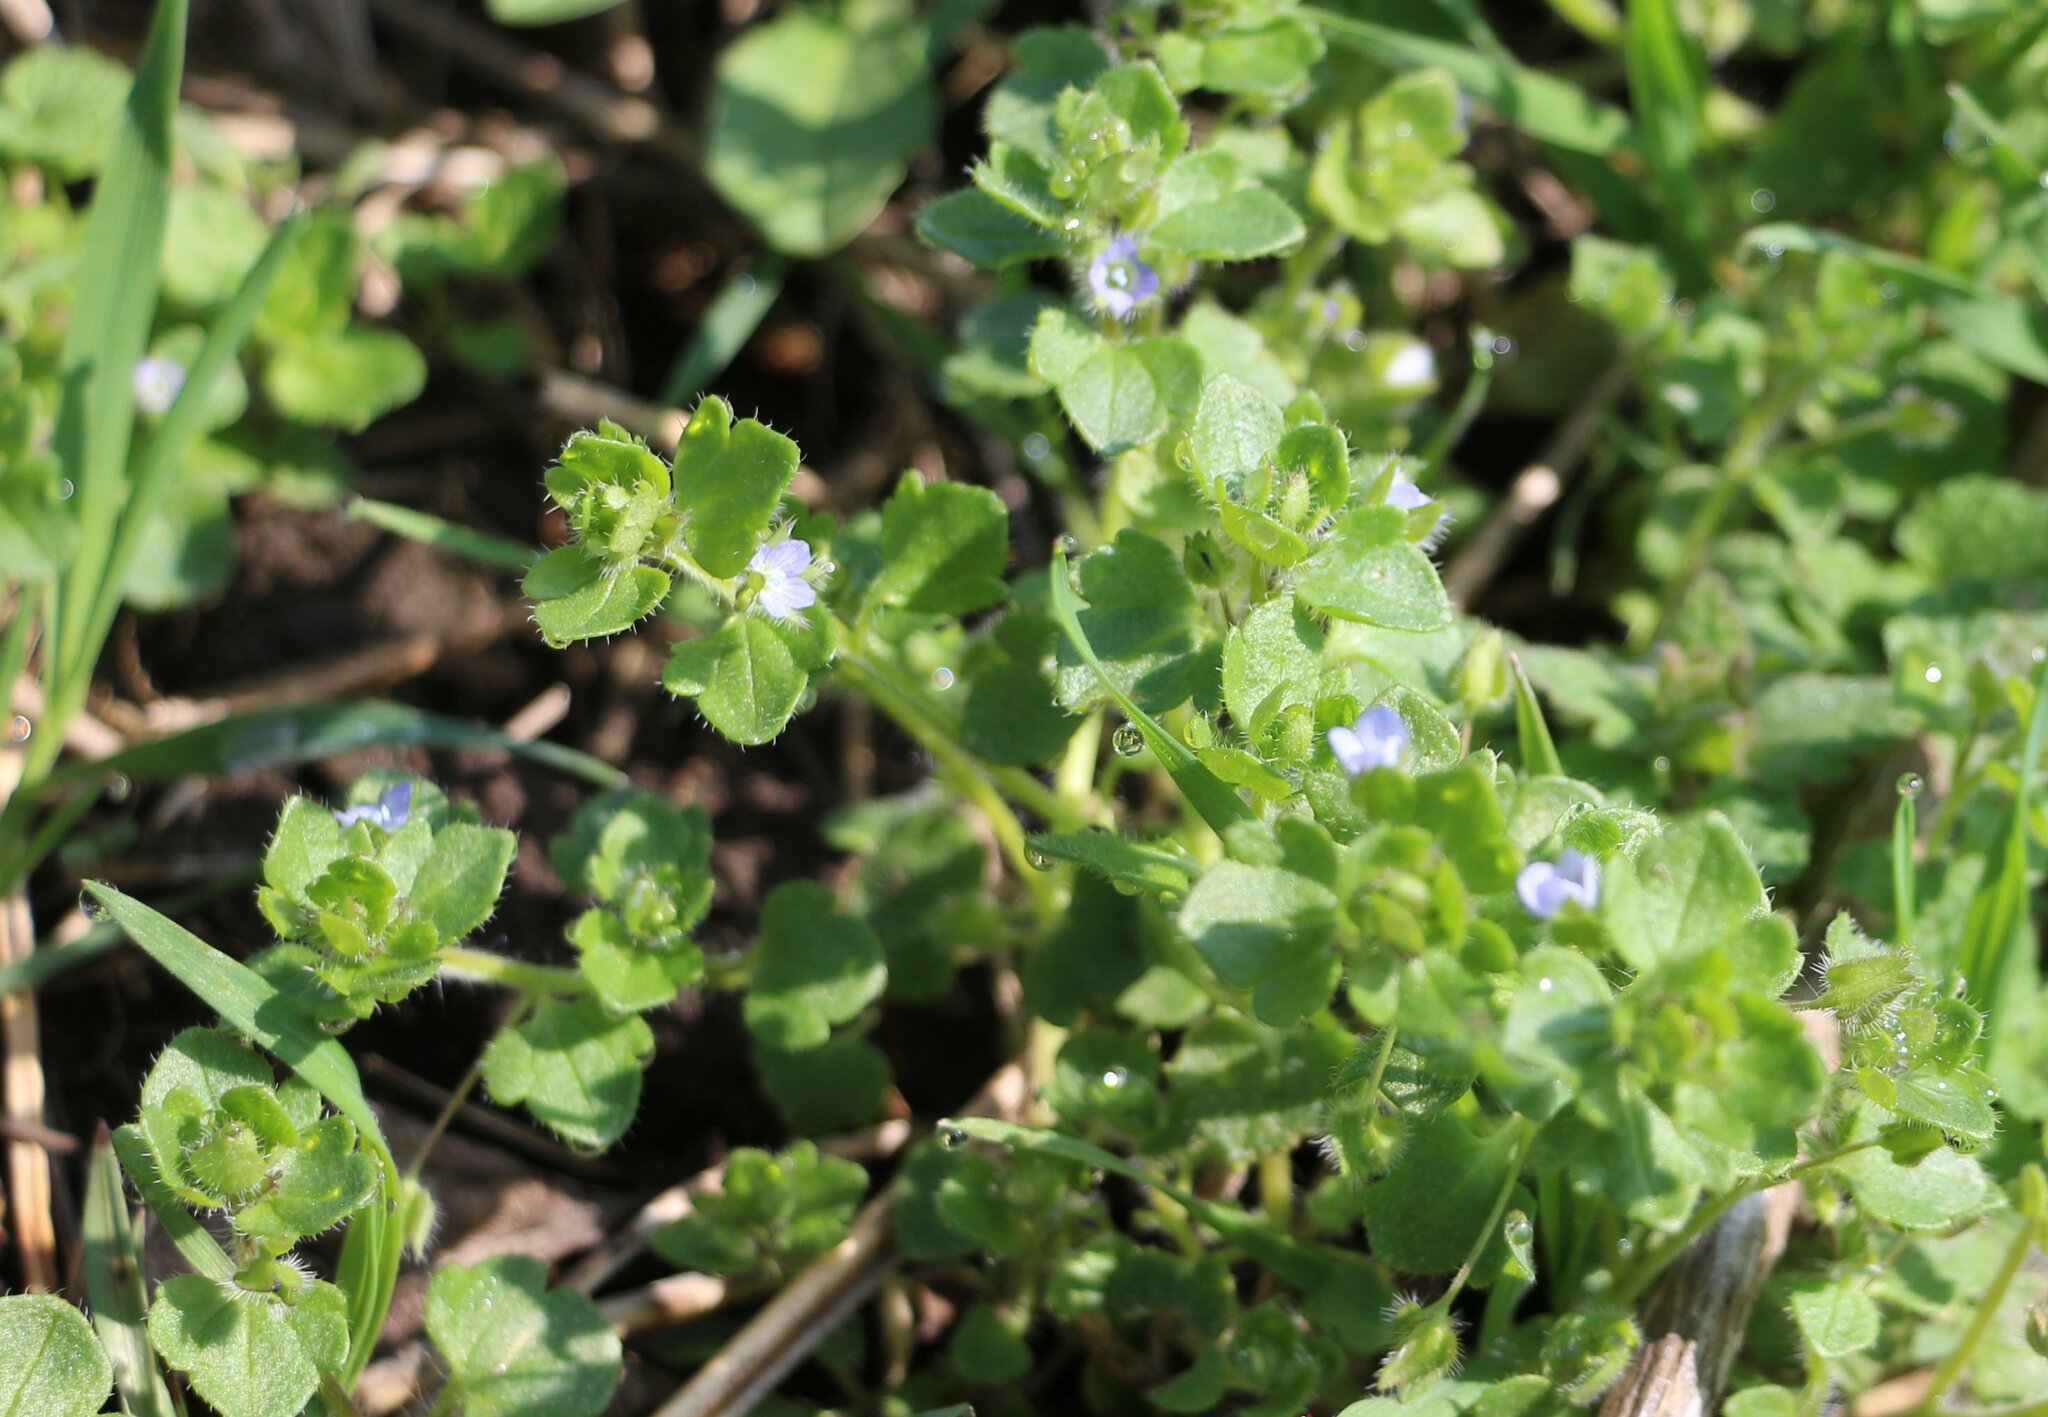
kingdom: Plantae
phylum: Tracheophyta
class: Magnoliopsida
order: Lamiales
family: Plantaginaceae
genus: Veronica
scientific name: Veronica hederifolia
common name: Ivy-leaved speedwell
